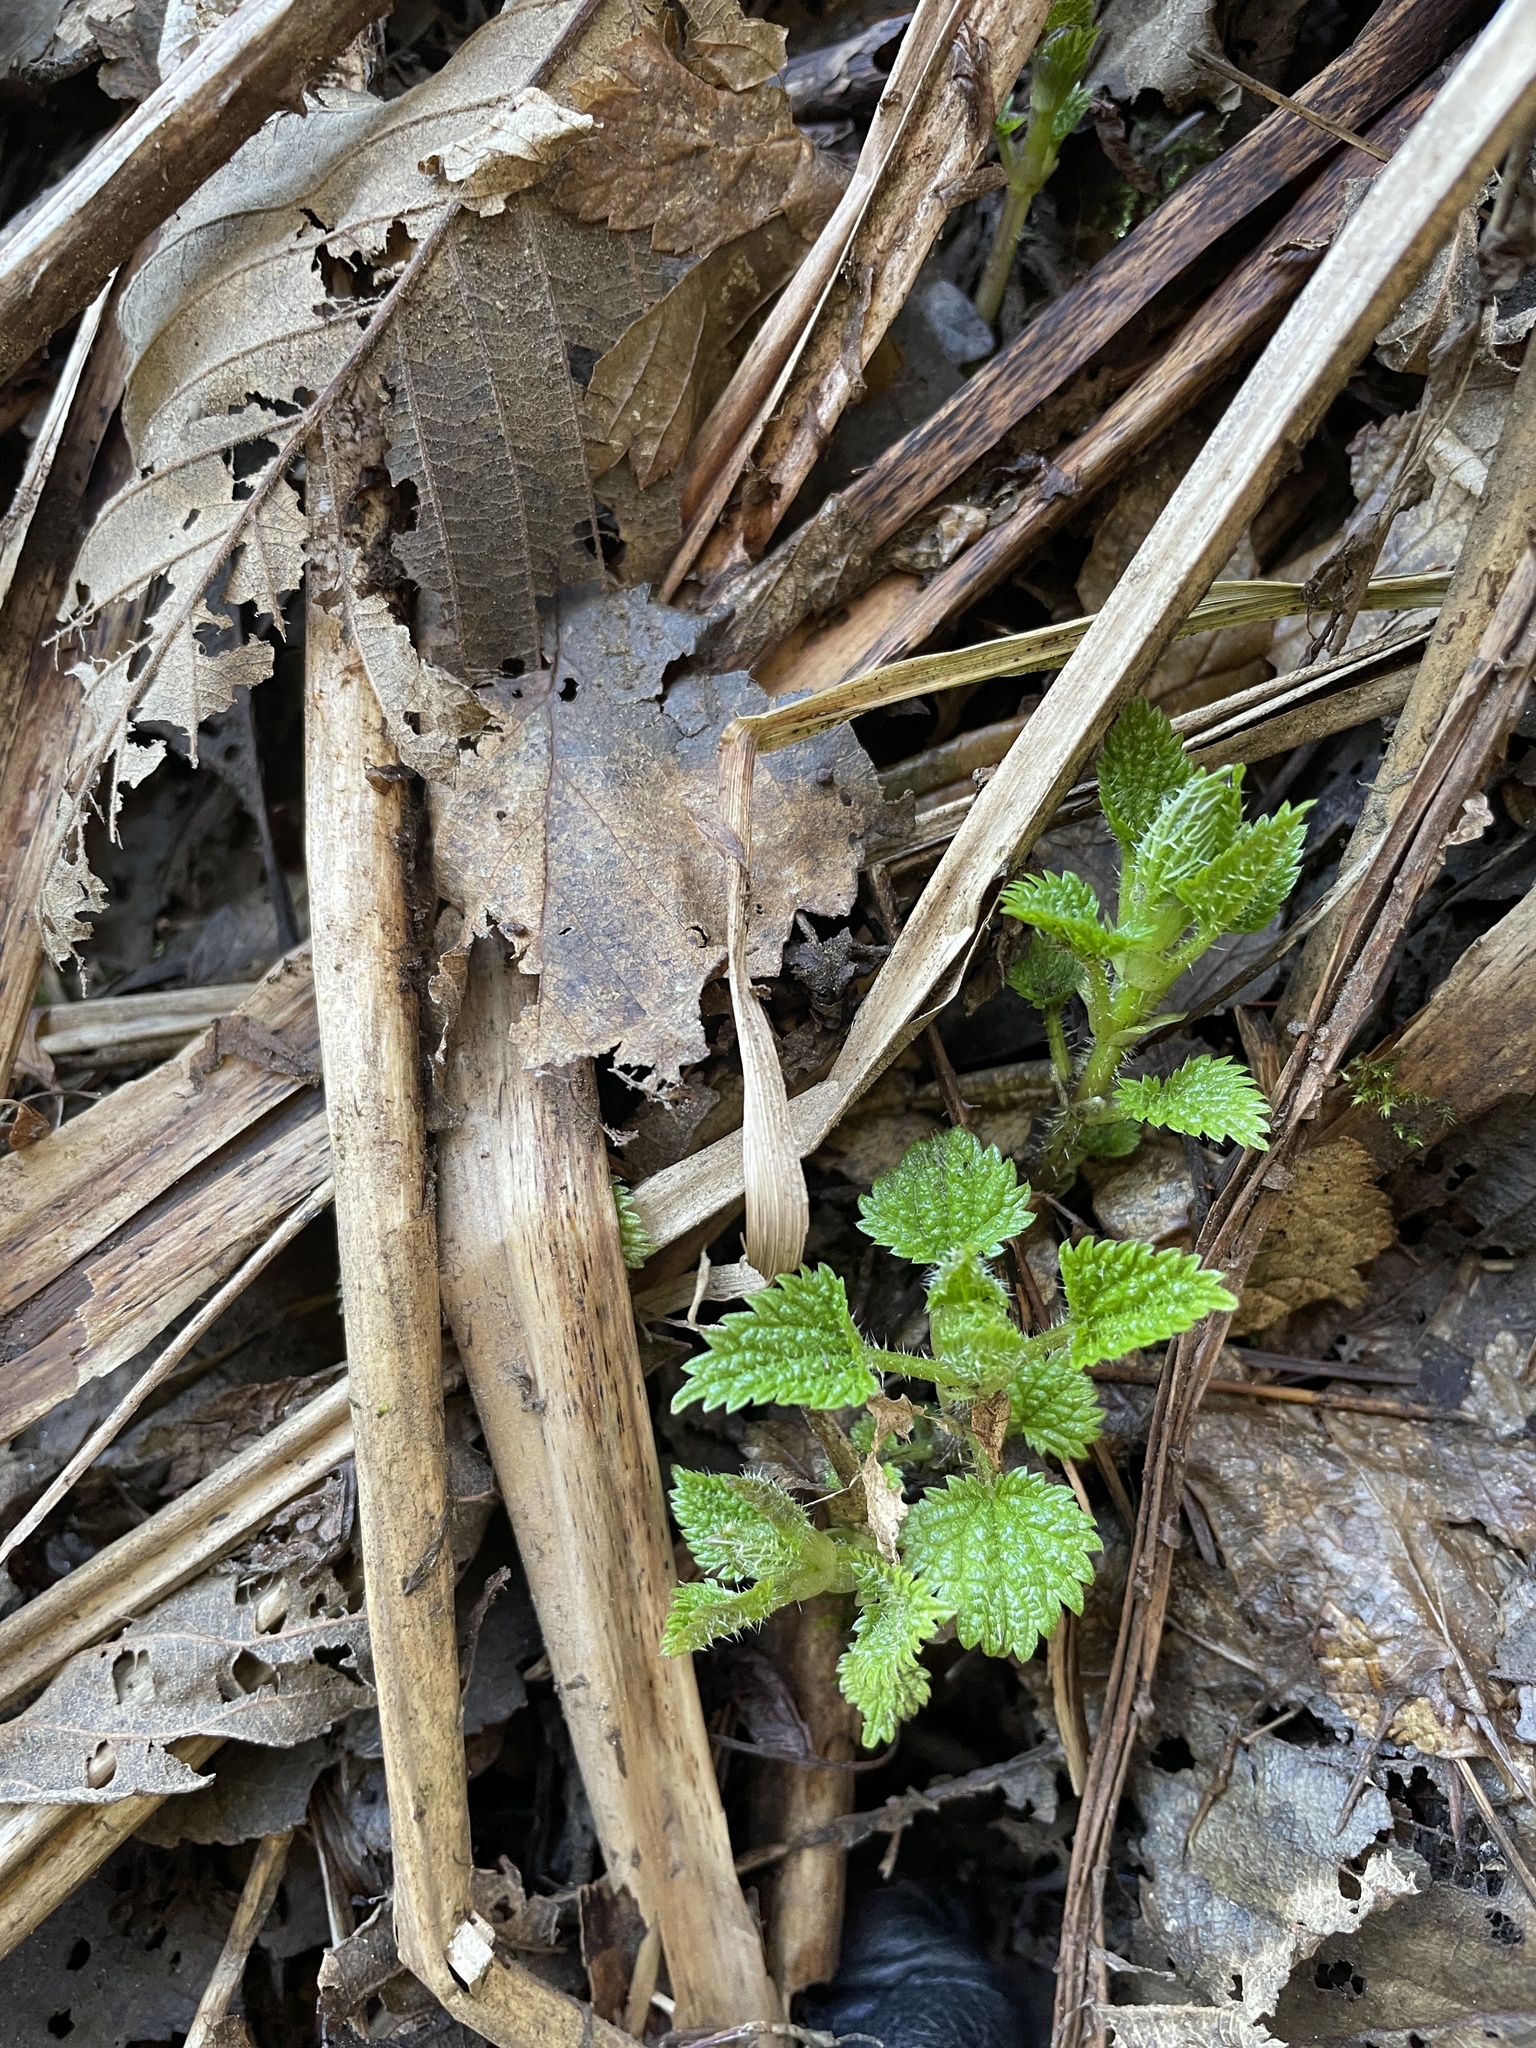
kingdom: Plantae
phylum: Tracheophyta
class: Magnoliopsida
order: Rosales
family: Urticaceae
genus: Urtica
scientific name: Urtica dioica
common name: Common nettle
